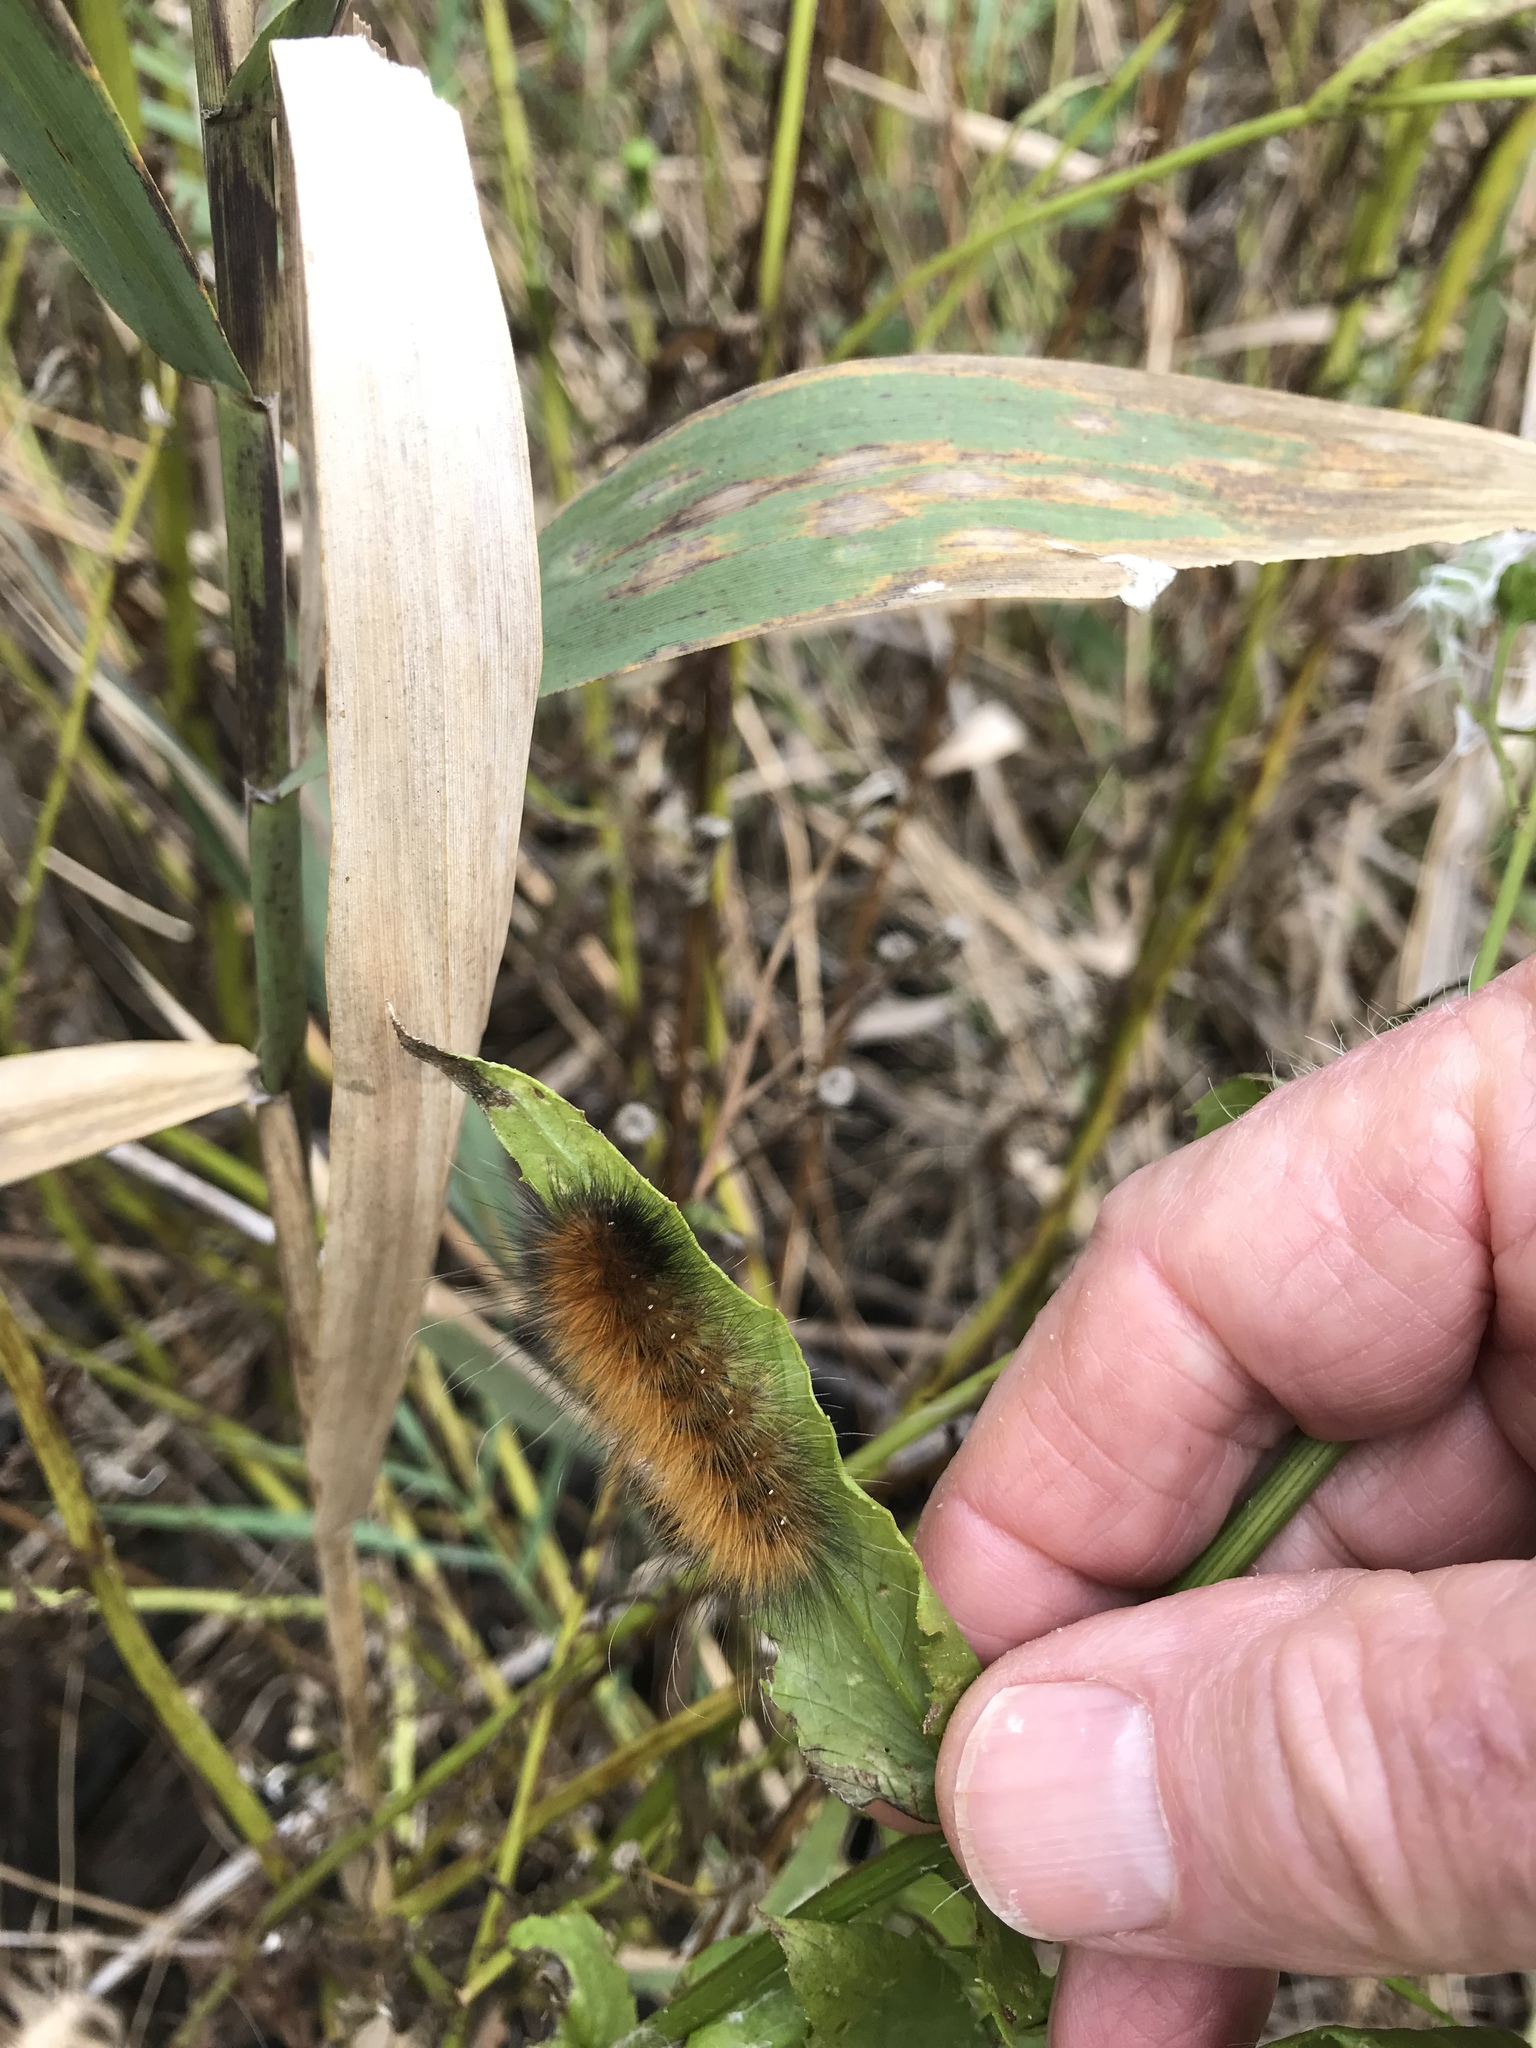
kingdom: Animalia
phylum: Arthropoda
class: Insecta
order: Lepidoptera
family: Erebidae
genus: Spilosoma
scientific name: Spilosoma virginica
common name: Virginia tiger moth
